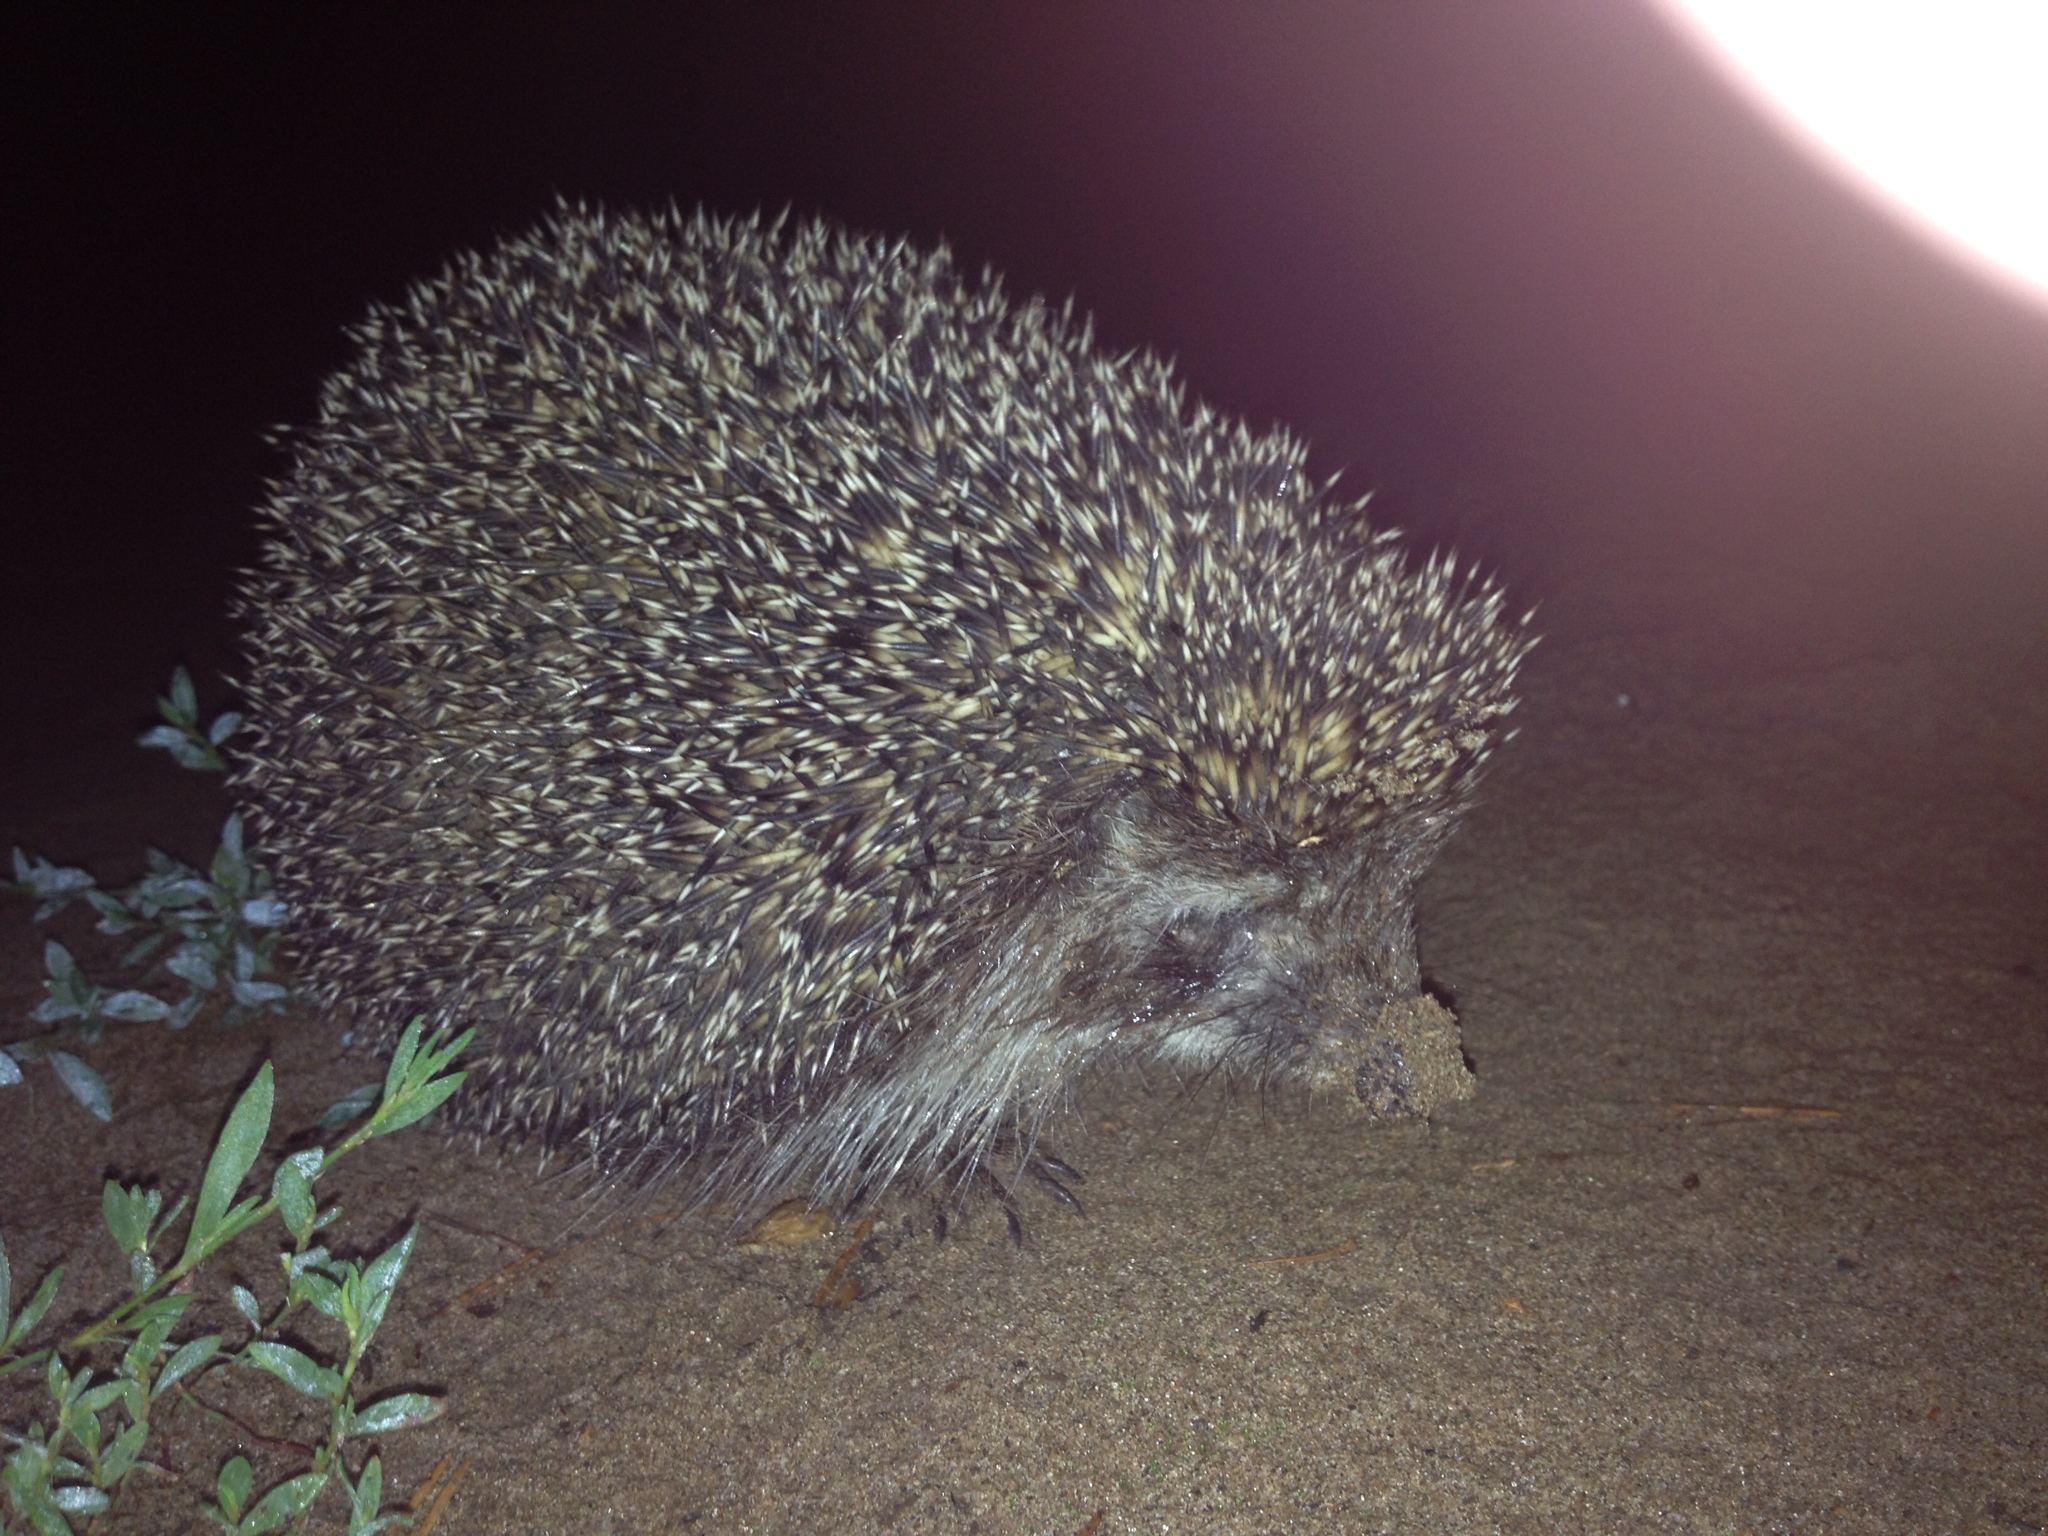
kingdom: Animalia
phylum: Chordata
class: Mammalia
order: Erinaceomorpha
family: Erinaceidae
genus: Erinaceus
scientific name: Erinaceus roumanicus
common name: Northern white-breasted hedgehog
